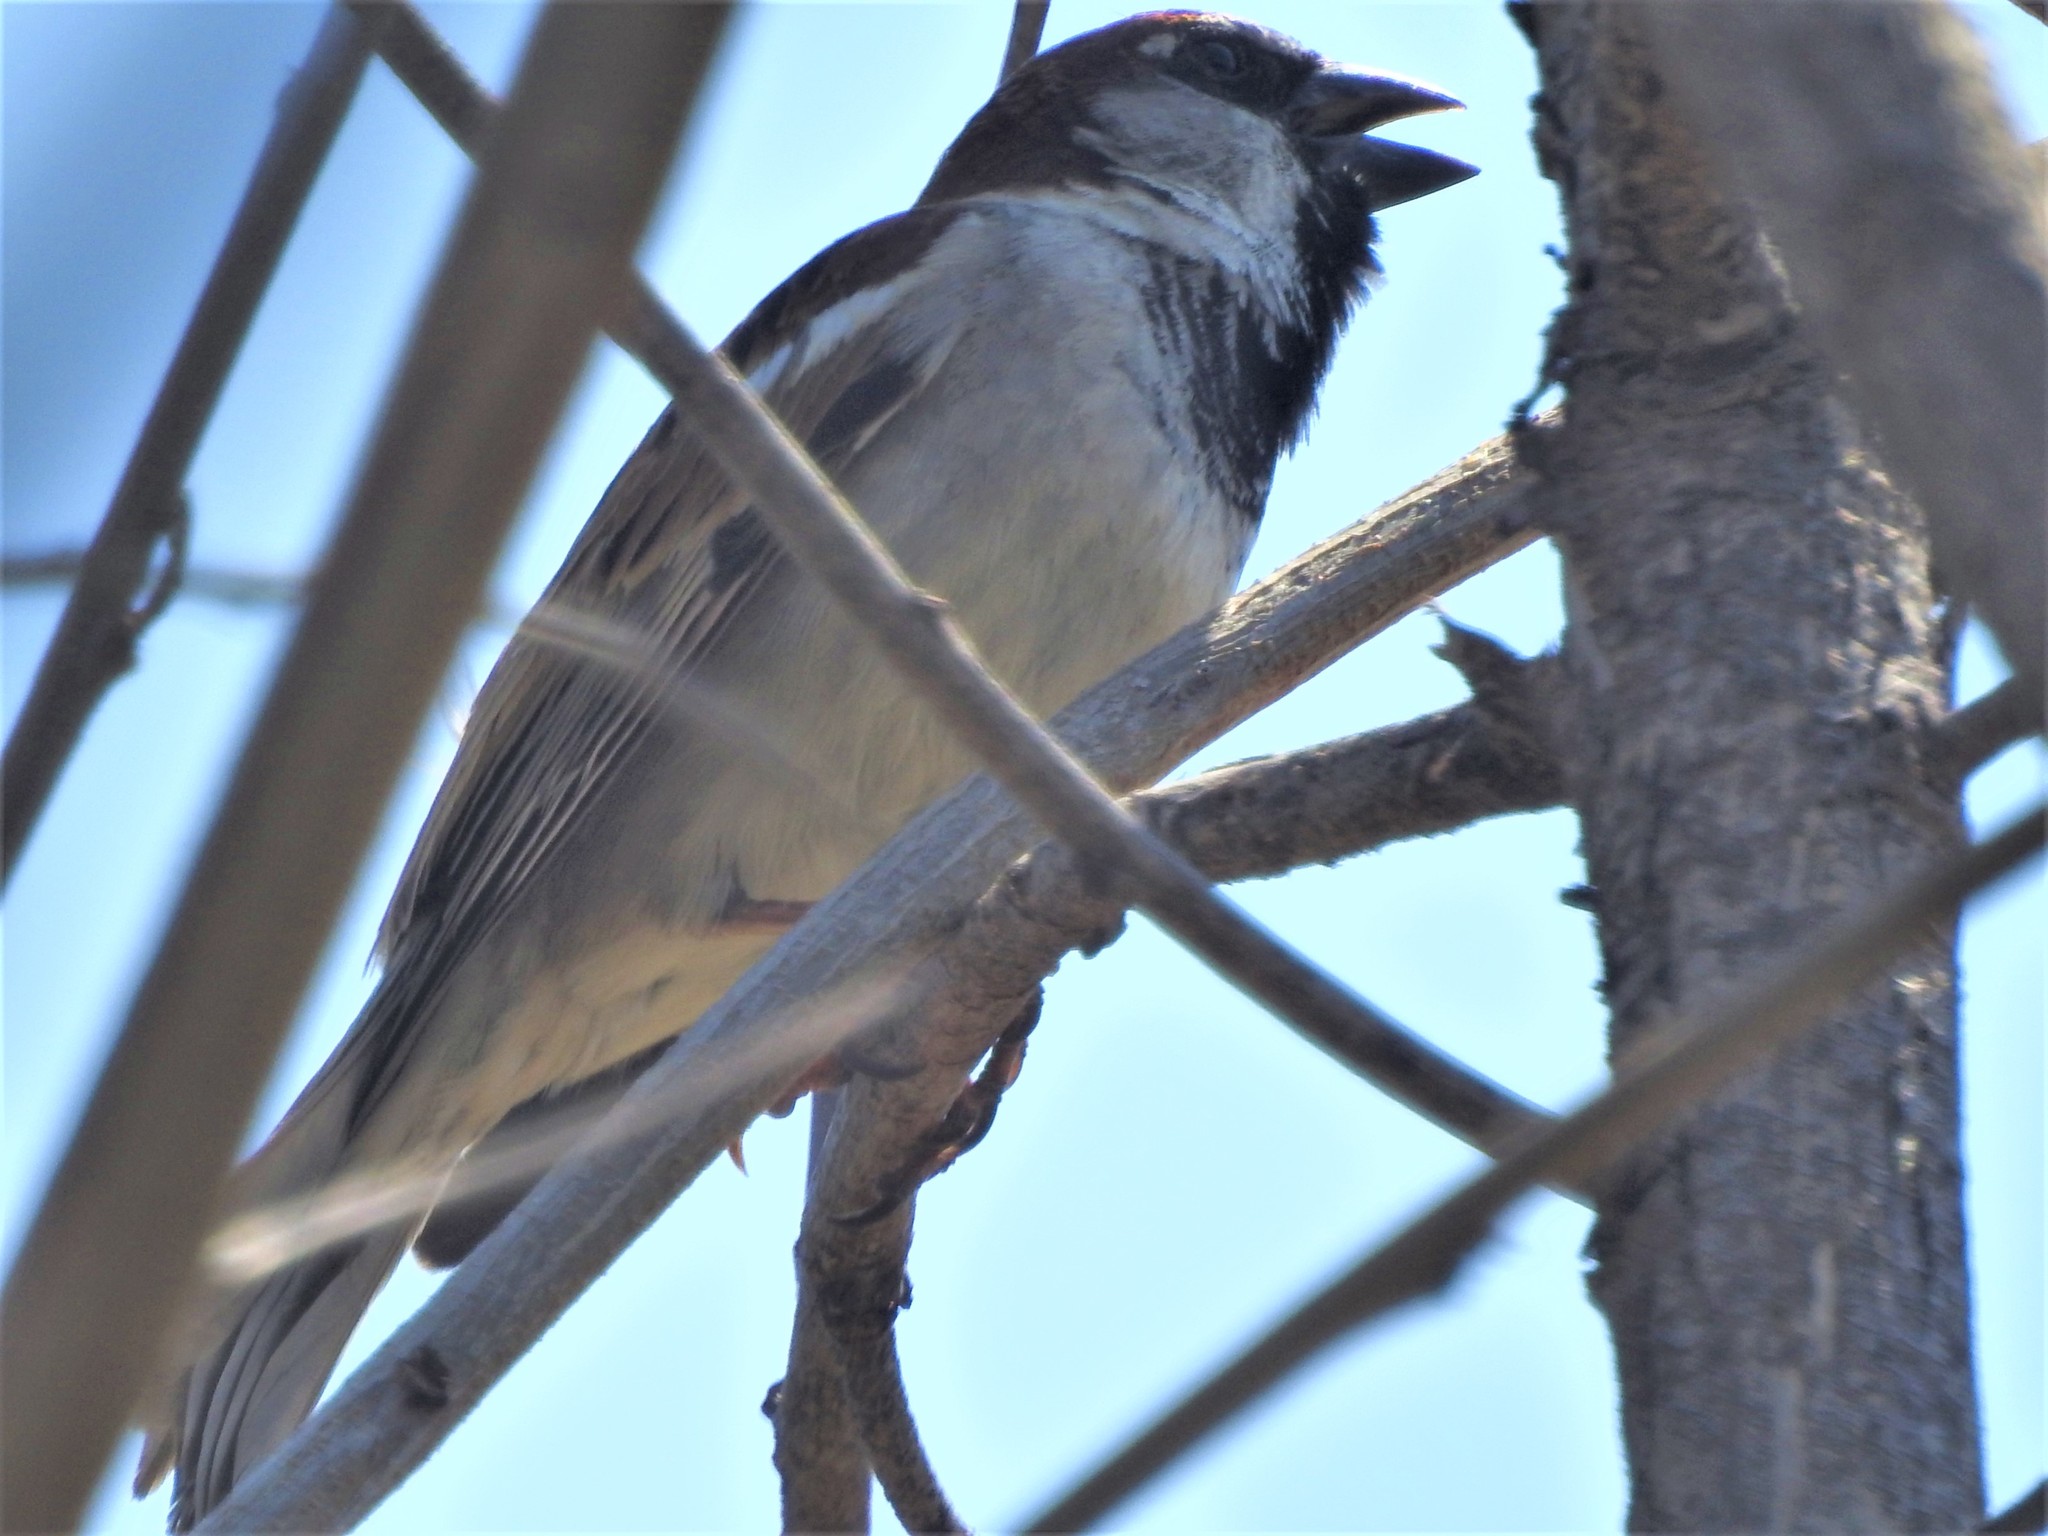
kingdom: Animalia
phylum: Chordata
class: Aves
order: Passeriformes
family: Passeridae
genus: Passer
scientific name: Passer domesticus
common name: House sparrow
